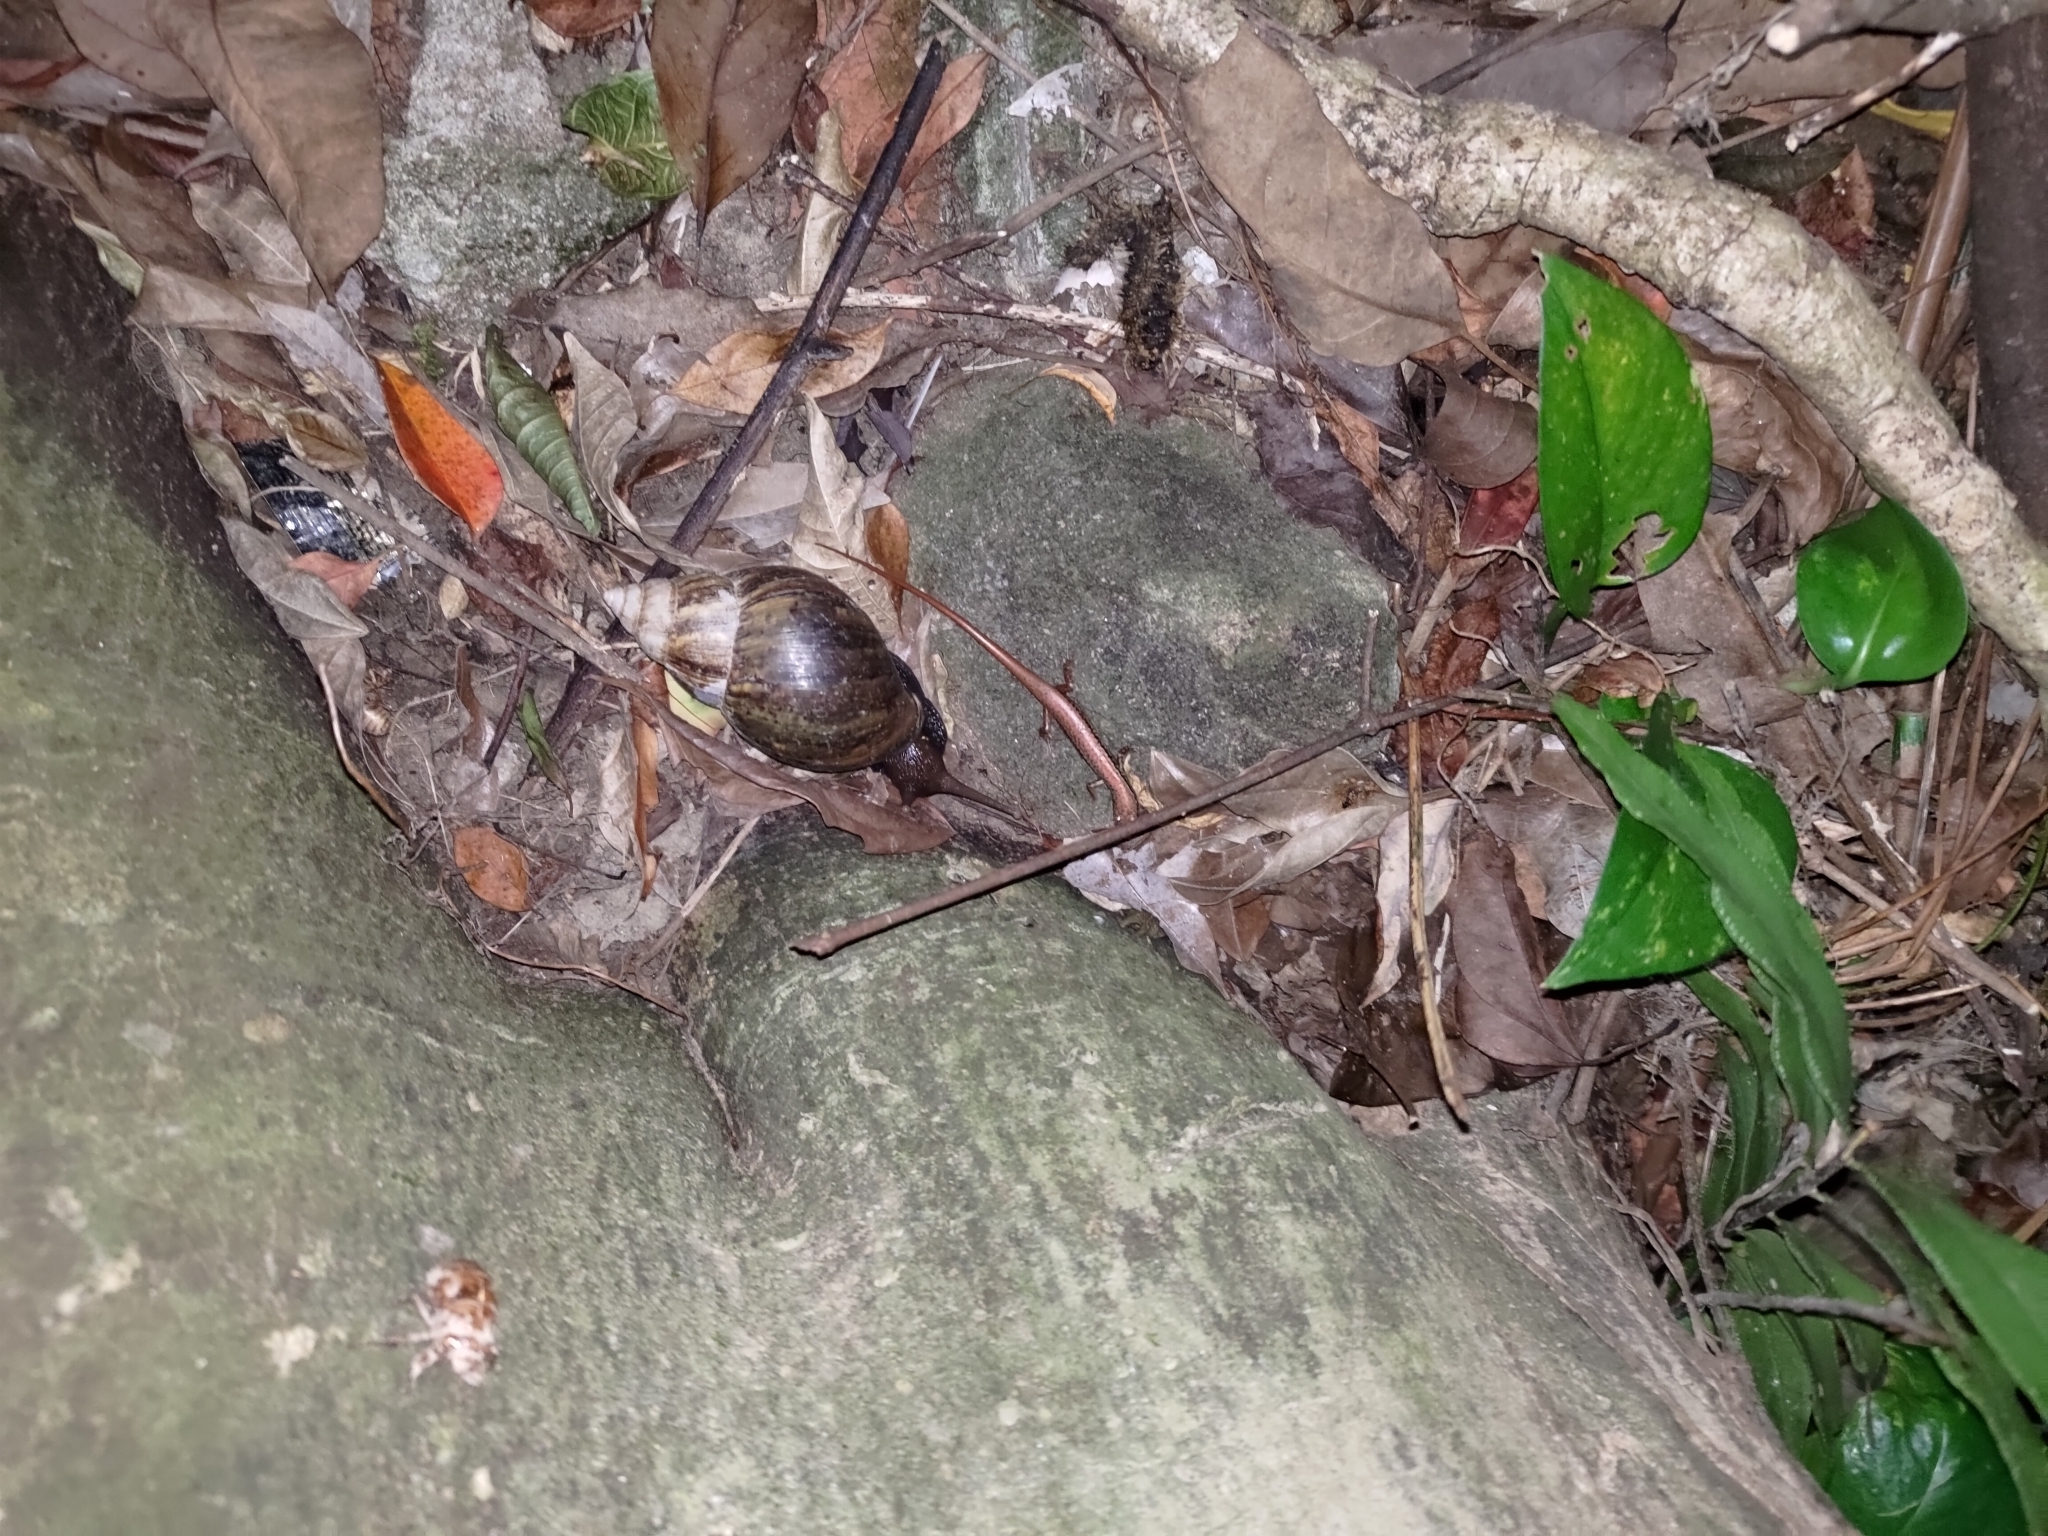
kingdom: Animalia
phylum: Chordata
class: Squamata
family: Scincidae
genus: Sphenomorphus
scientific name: Sphenomorphus indicus
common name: Himalayan forest skink
